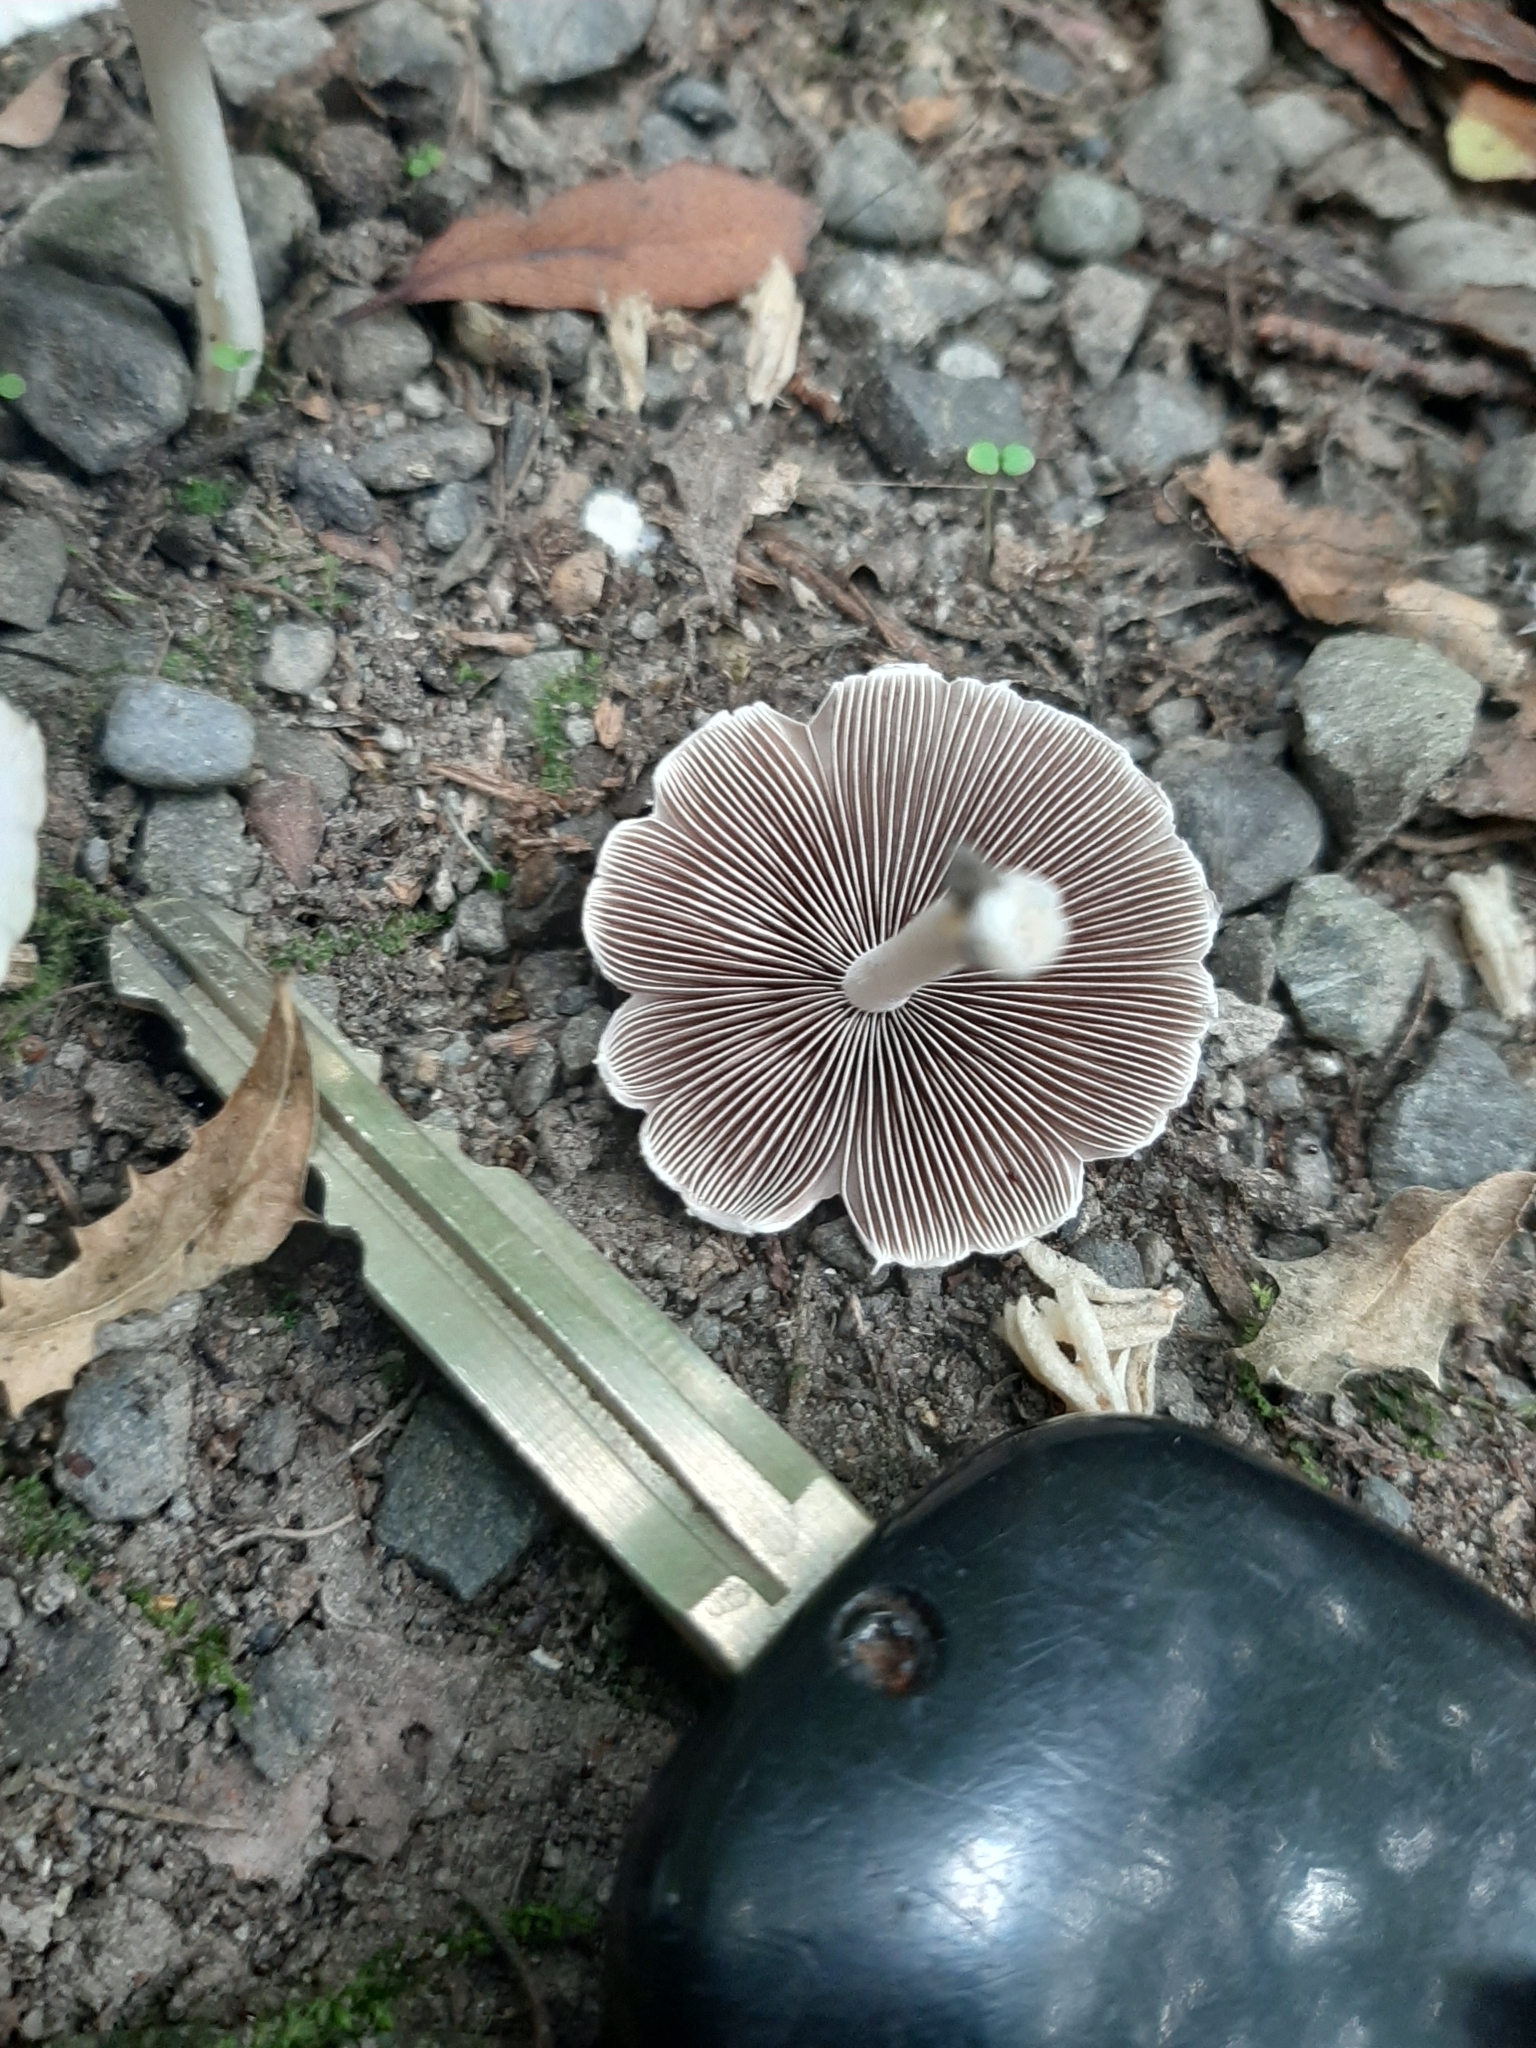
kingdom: Fungi
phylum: Basidiomycota
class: Agaricomycetes
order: Agaricales
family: Psathyrellaceae
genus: Candolleomyces
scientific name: Candolleomyces candolleanus
